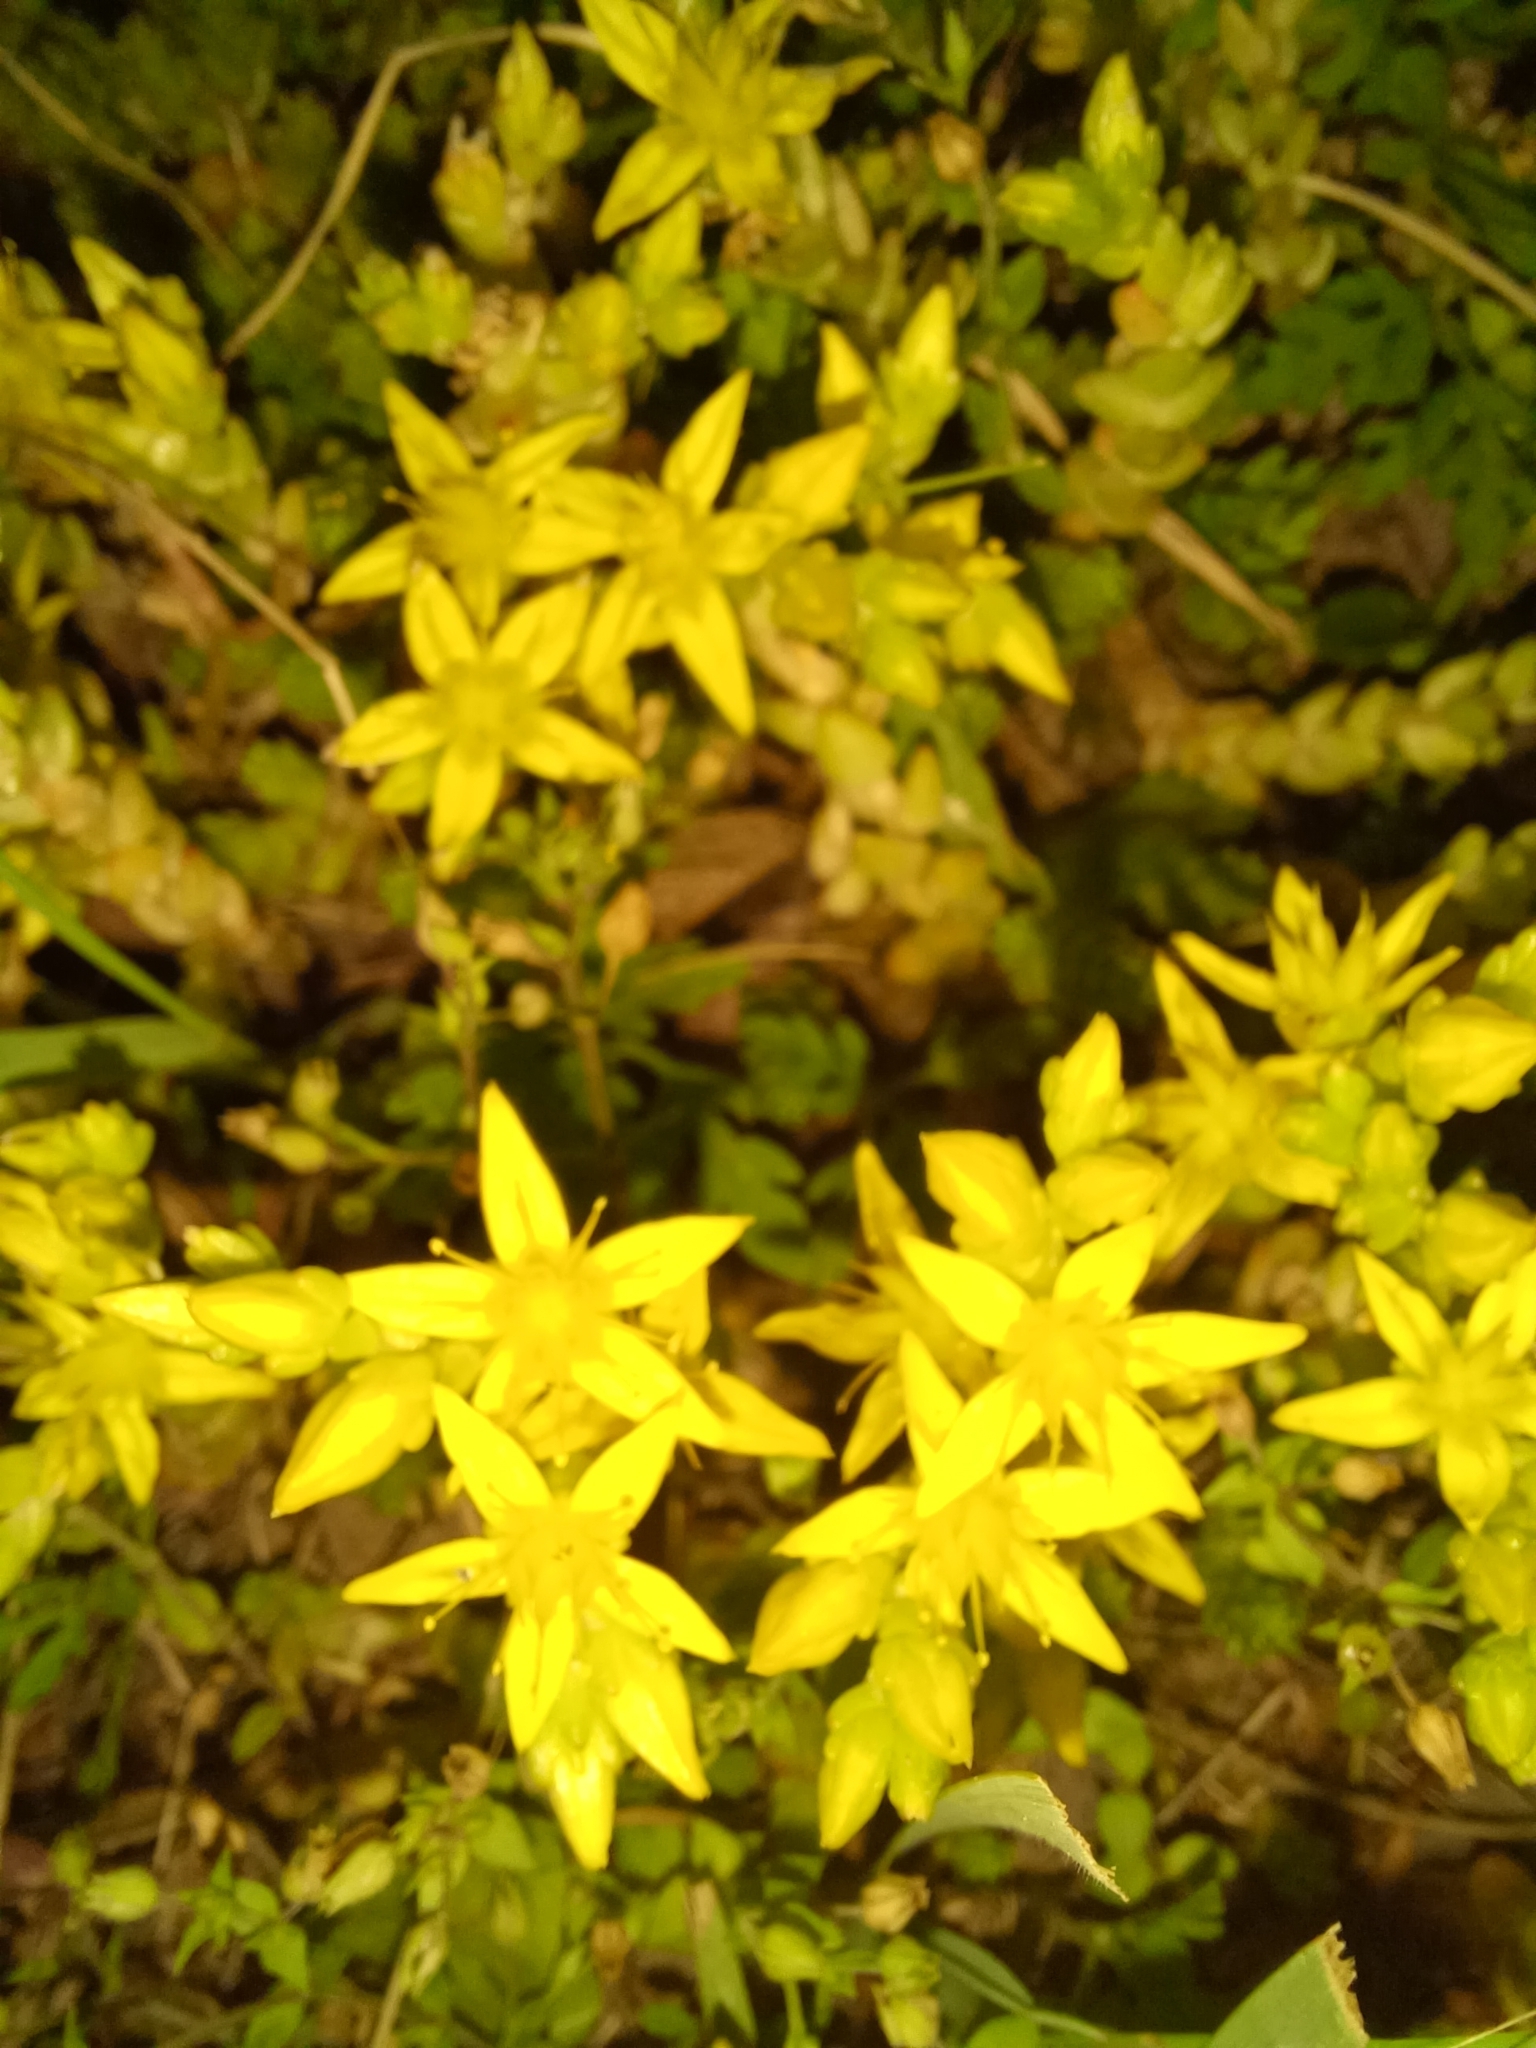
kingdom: Plantae
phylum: Tracheophyta
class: Magnoliopsida
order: Saxifragales
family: Crassulaceae
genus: Sedum
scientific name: Sedum acre
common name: Biting stonecrop
